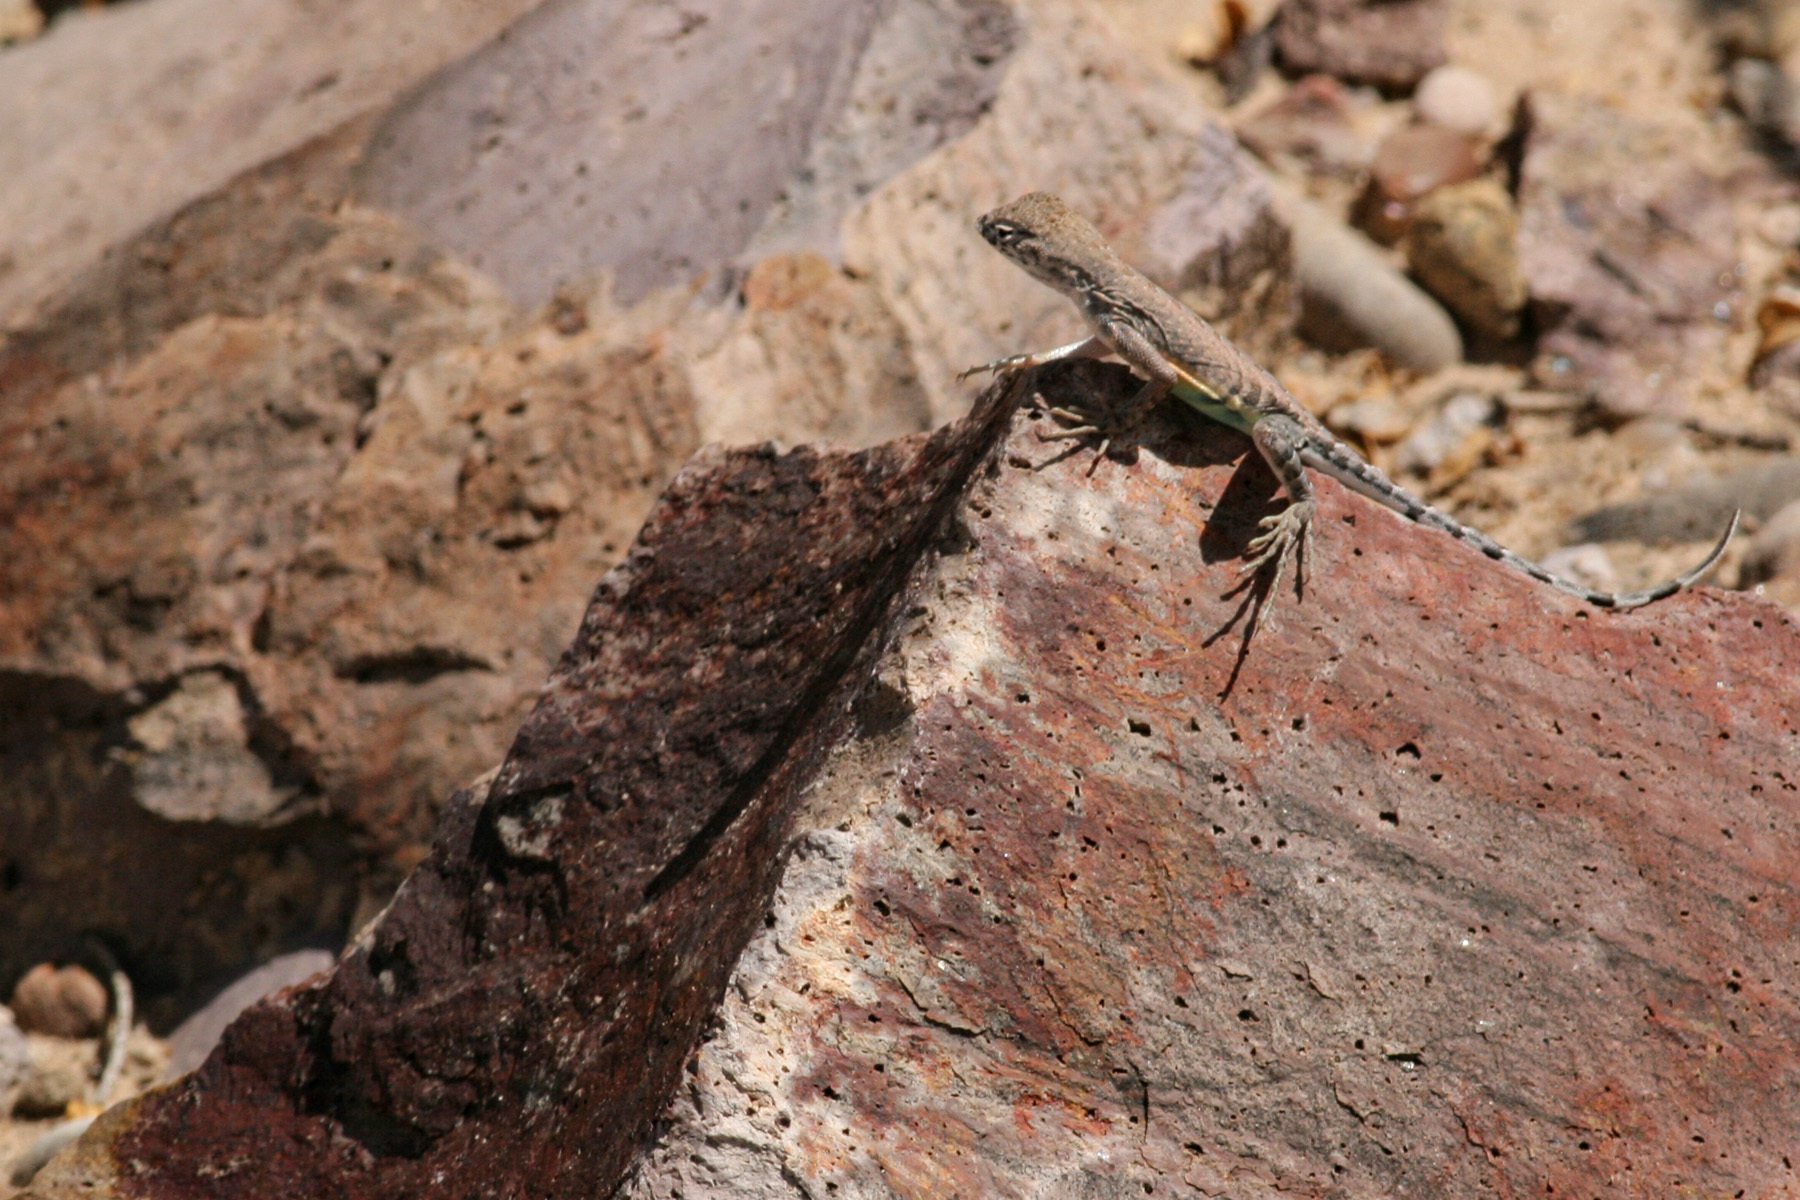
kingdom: Animalia
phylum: Chordata
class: Squamata
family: Phrynosomatidae
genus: Cophosaurus
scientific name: Cophosaurus texanus
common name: Greater earless lizard
